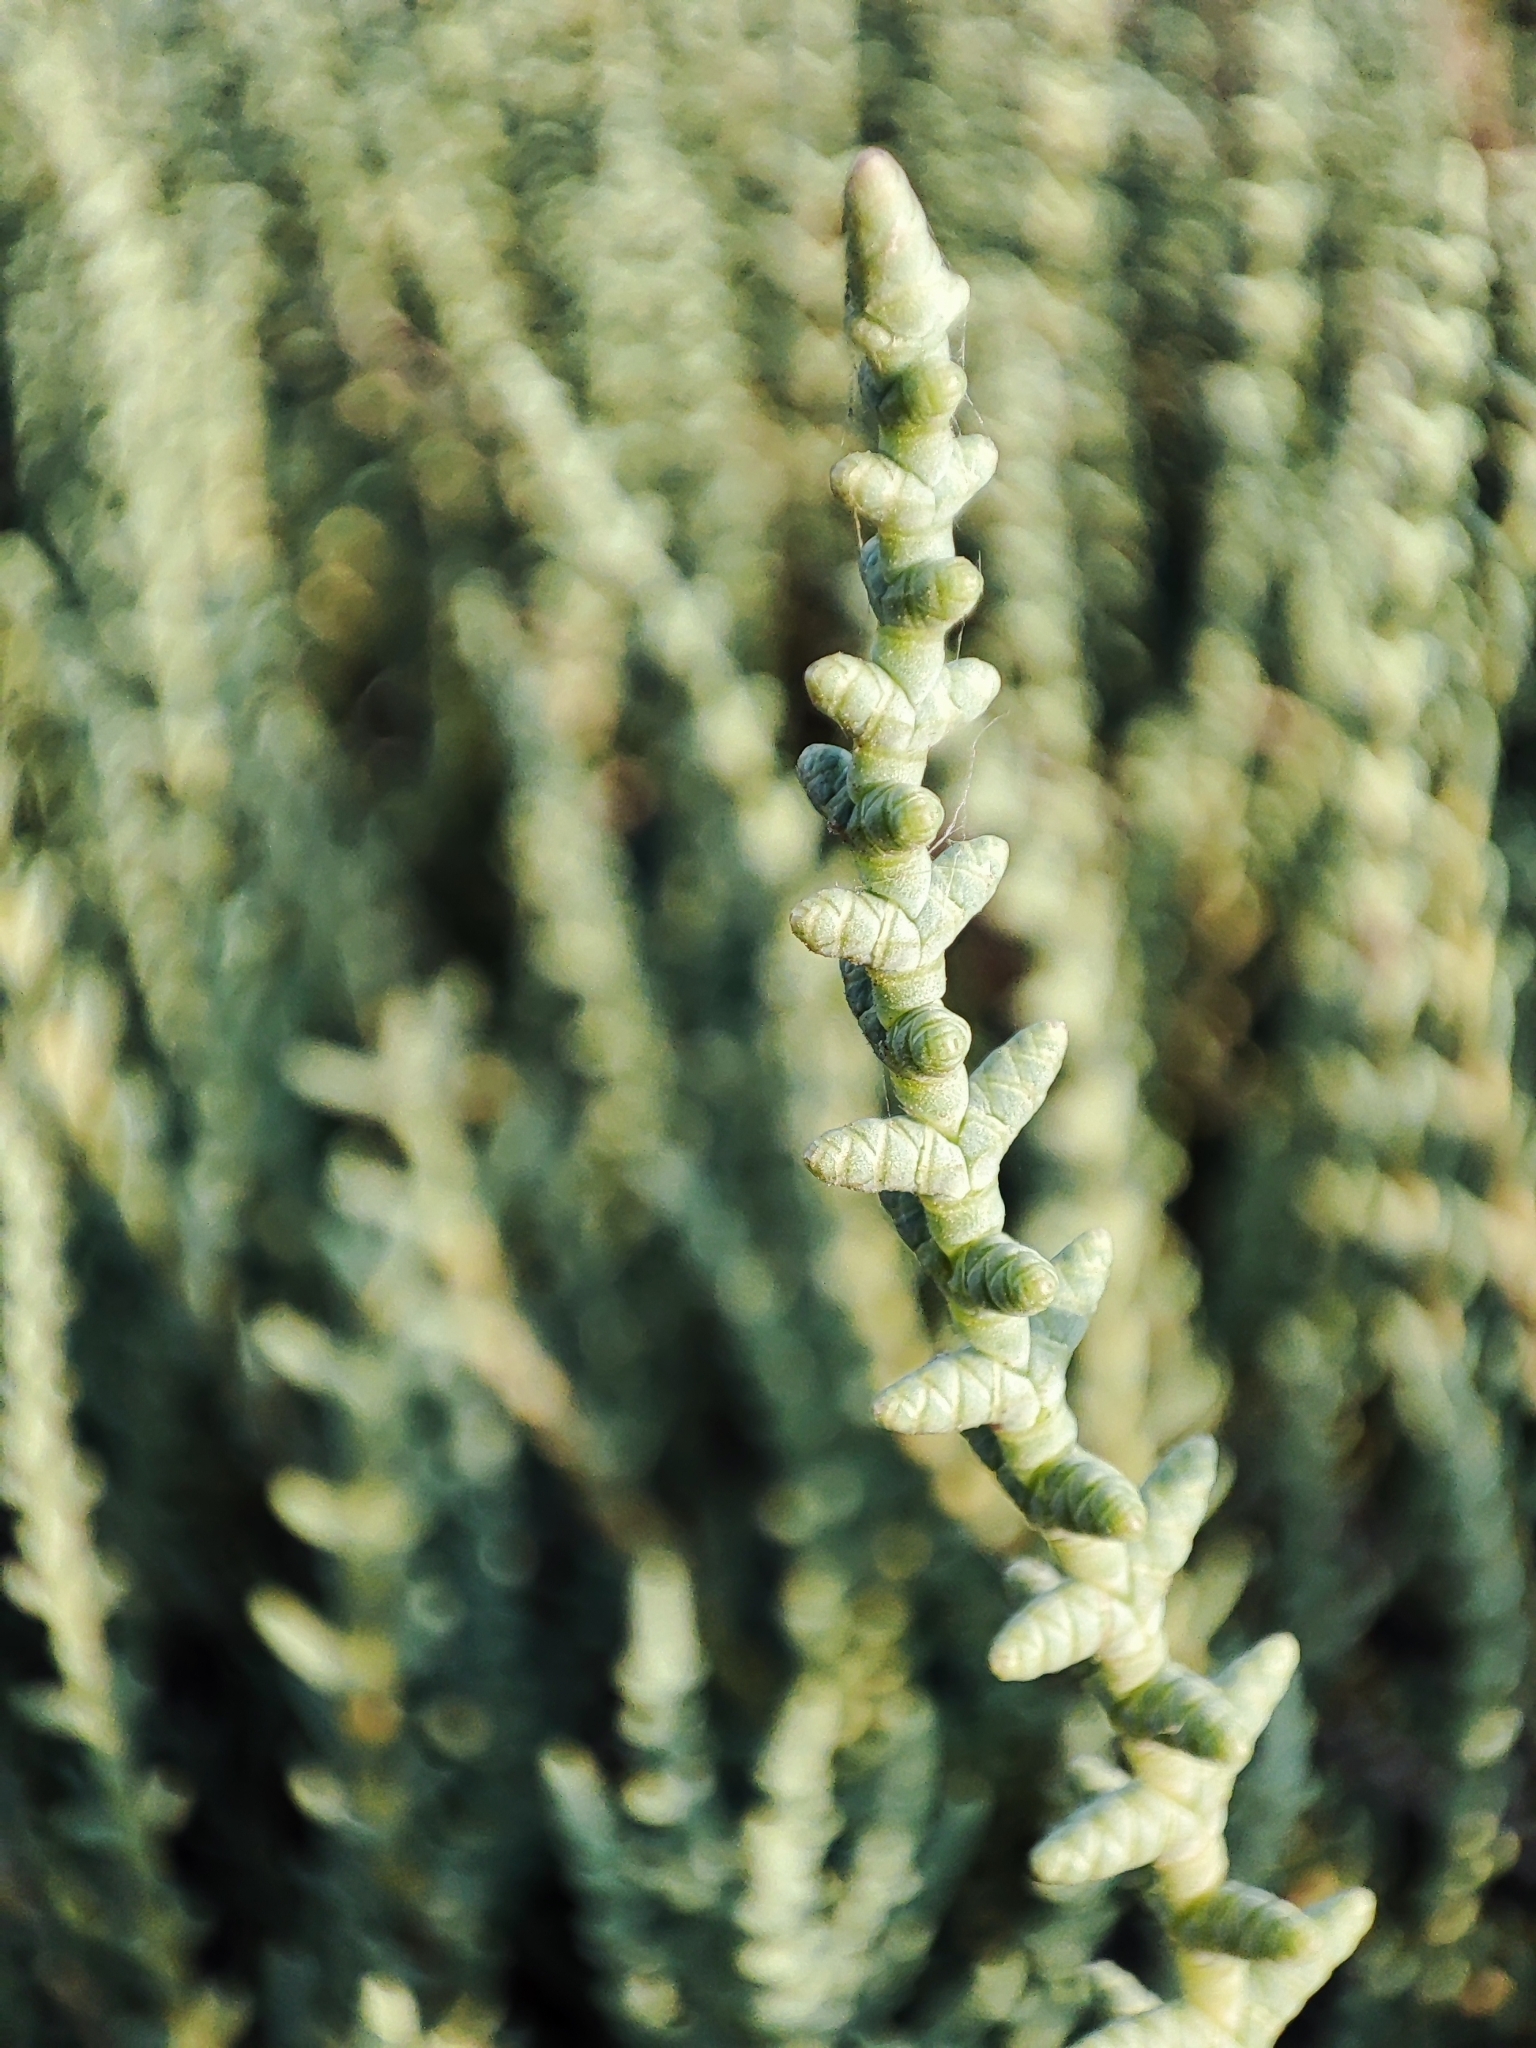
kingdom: Plantae
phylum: Tracheophyta
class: Magnoliopsida
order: Caryophyllales
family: Amaranthaceae
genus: Halocnemum
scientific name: Halocnemum strobilaceum
